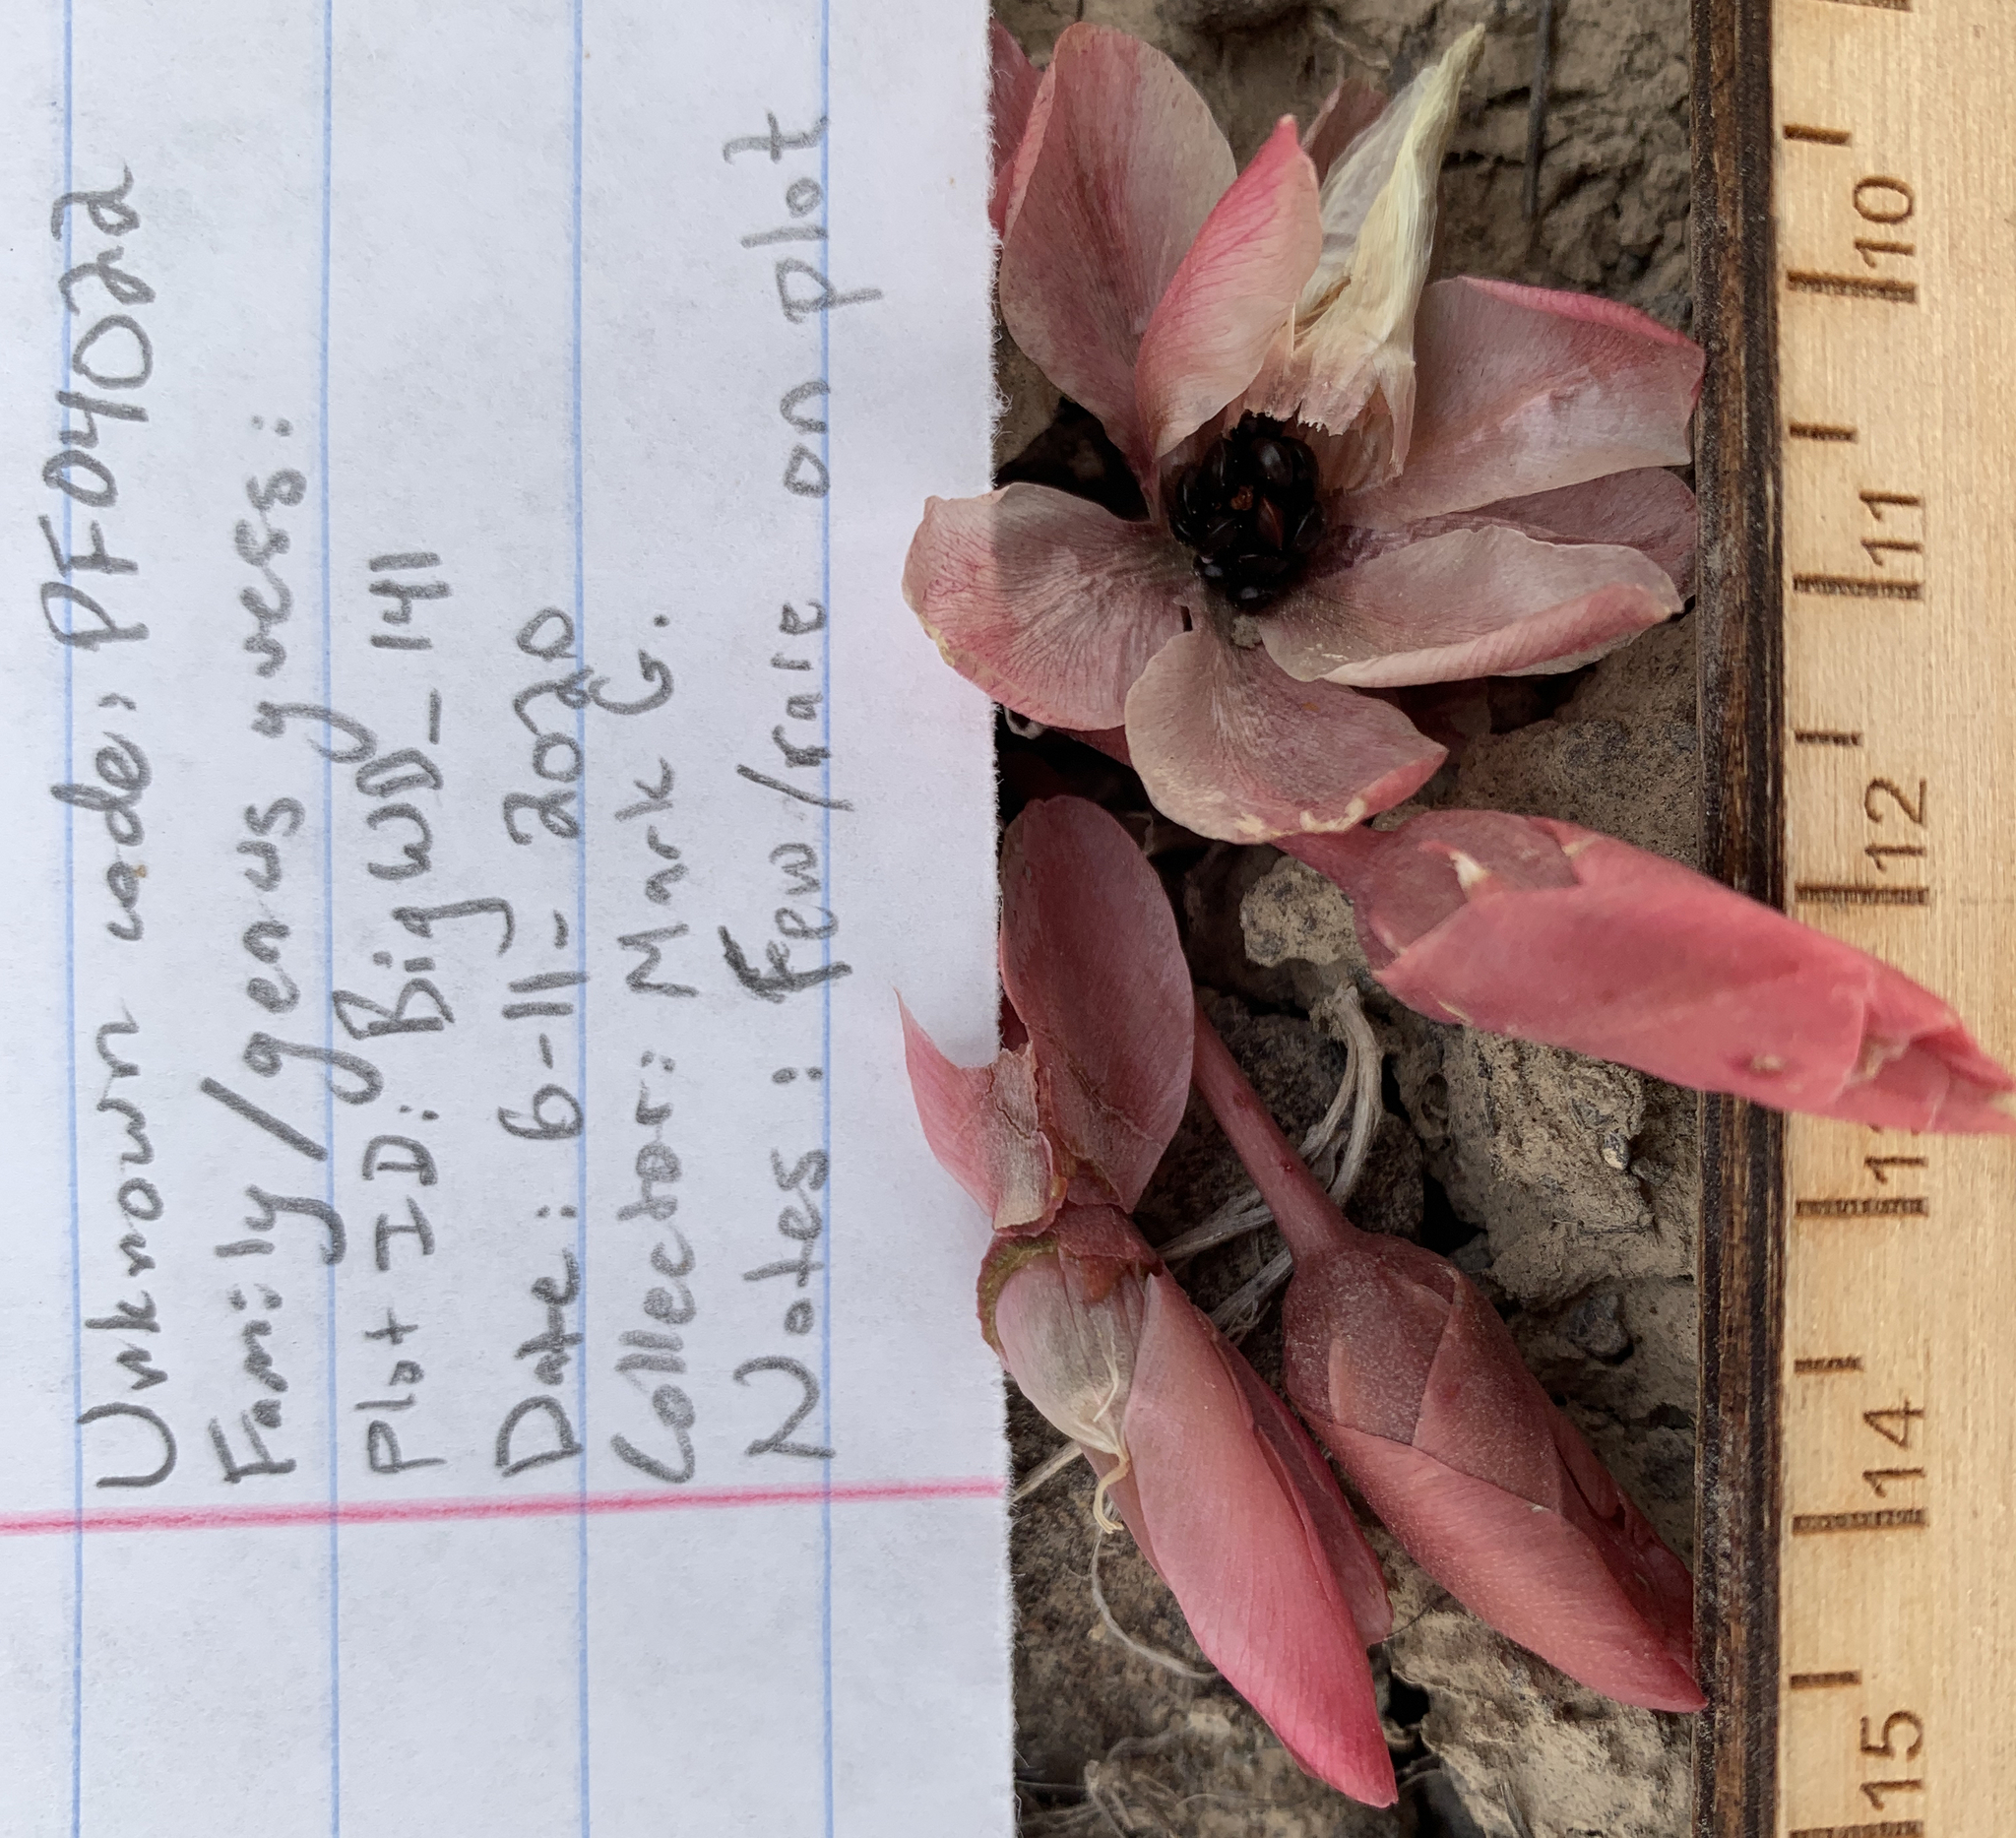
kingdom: Plantae
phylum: Tracheophyta
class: Magnoliopsida
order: Caryophyllales
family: Montiaceae
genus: Lewisia
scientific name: Lewisia rediviva
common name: Bitter-root
